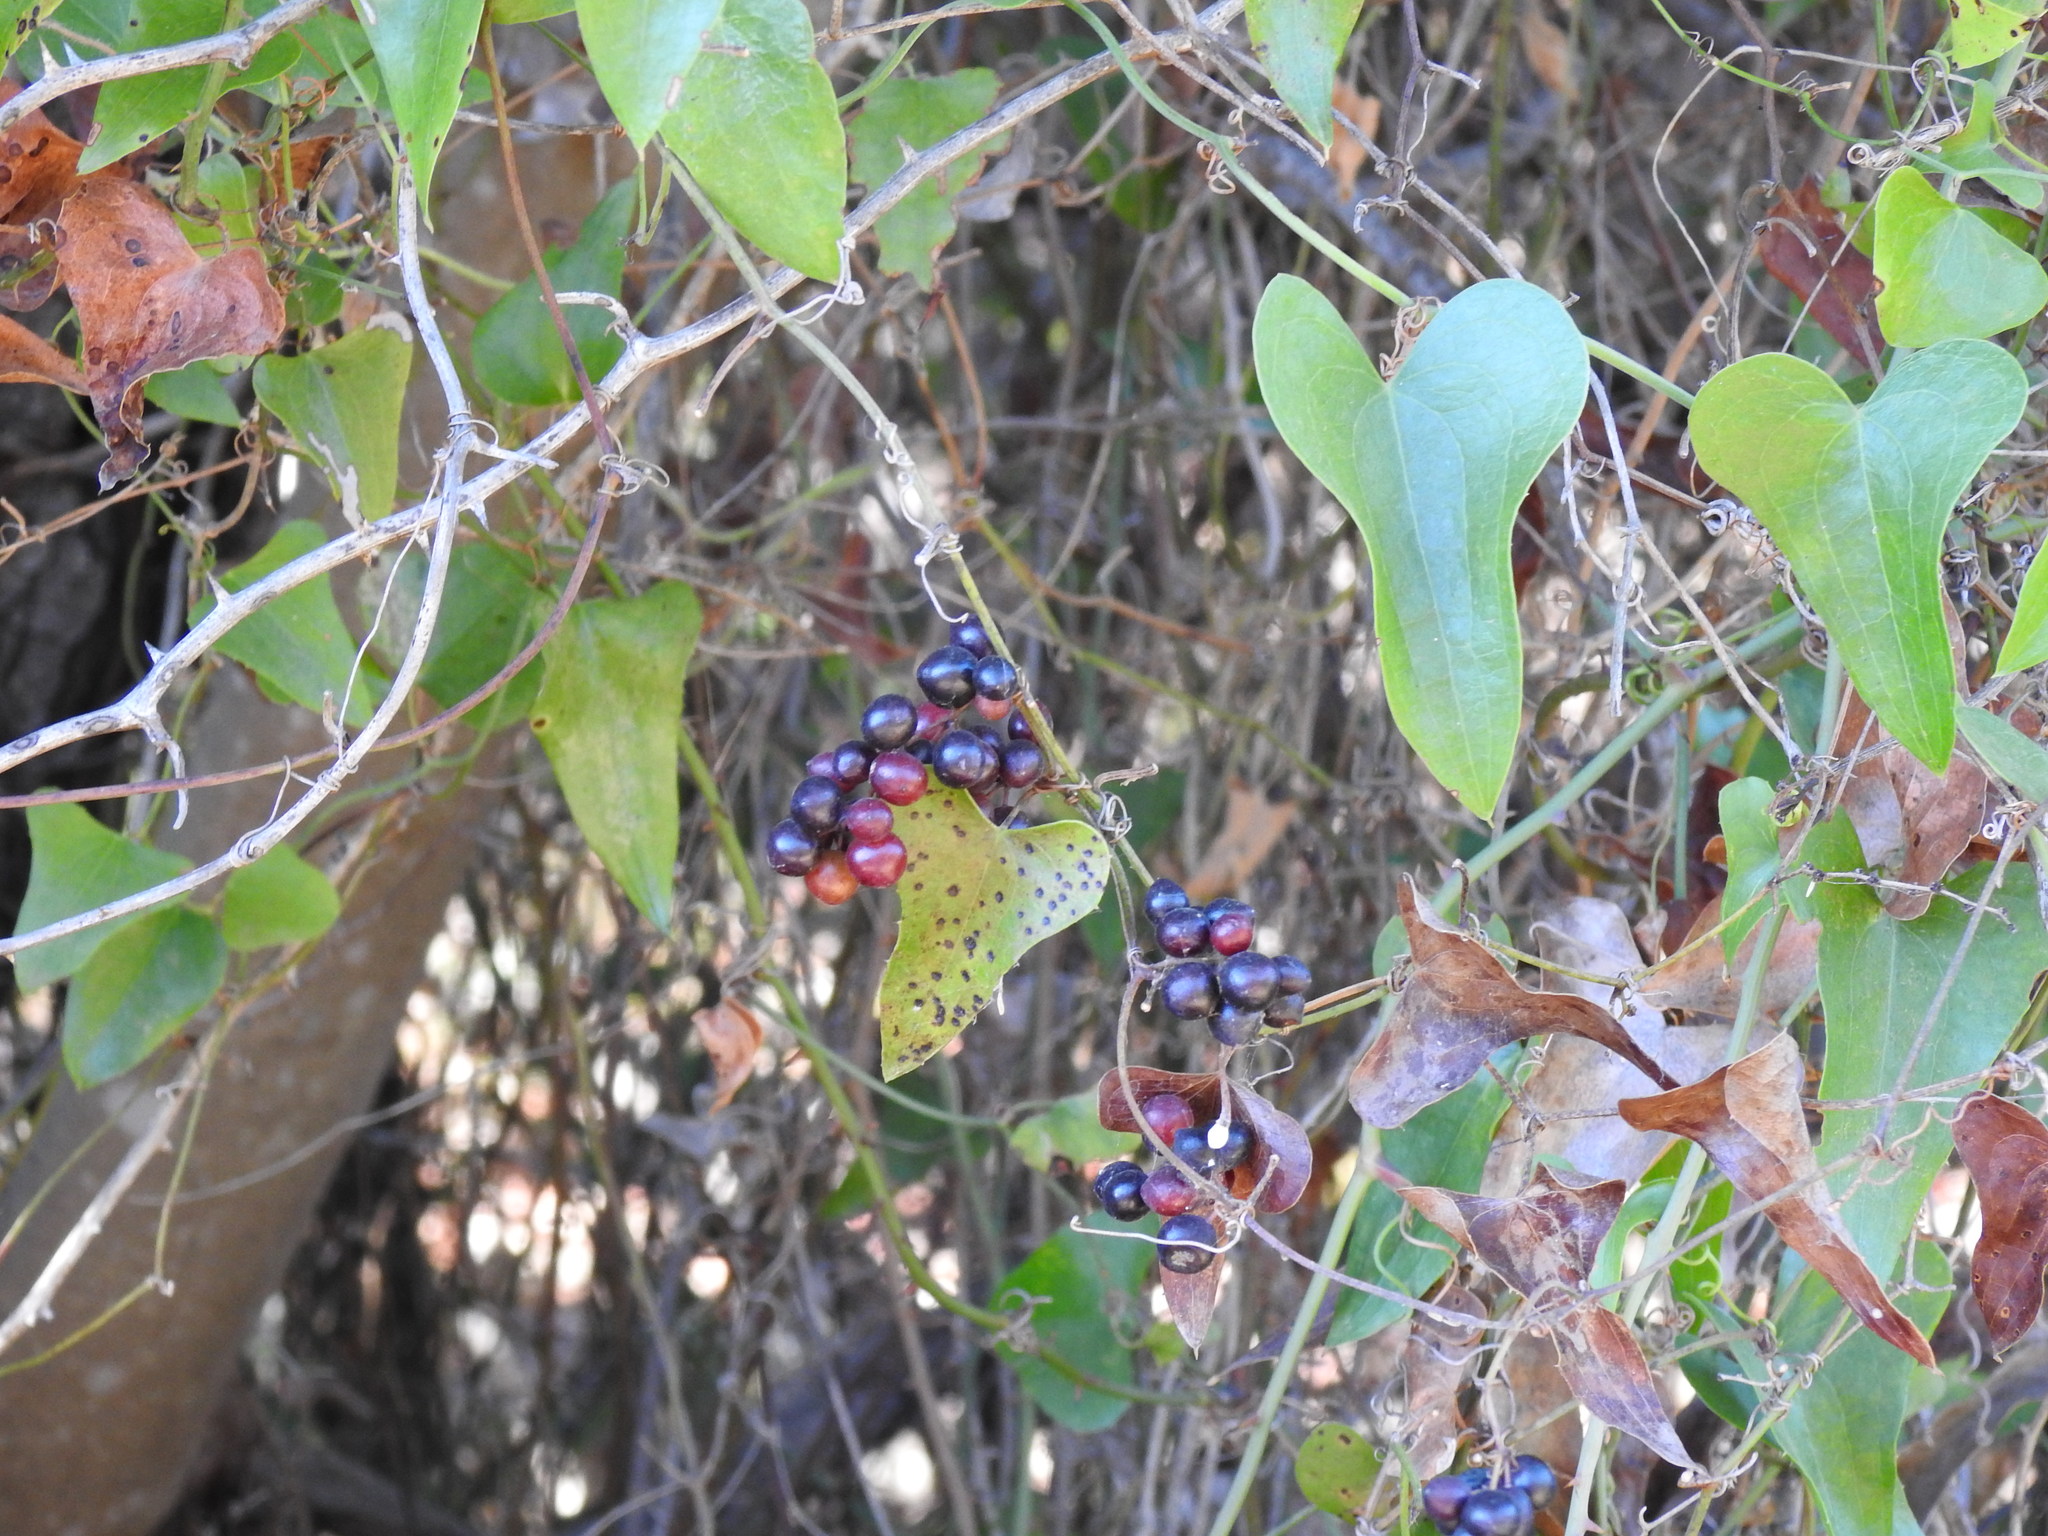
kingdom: Plantae
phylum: Tracheophyta
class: Liliopsida
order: Liliales
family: Smilacaceae
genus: Smilax
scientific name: Smilax aspera
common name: Common smilax
